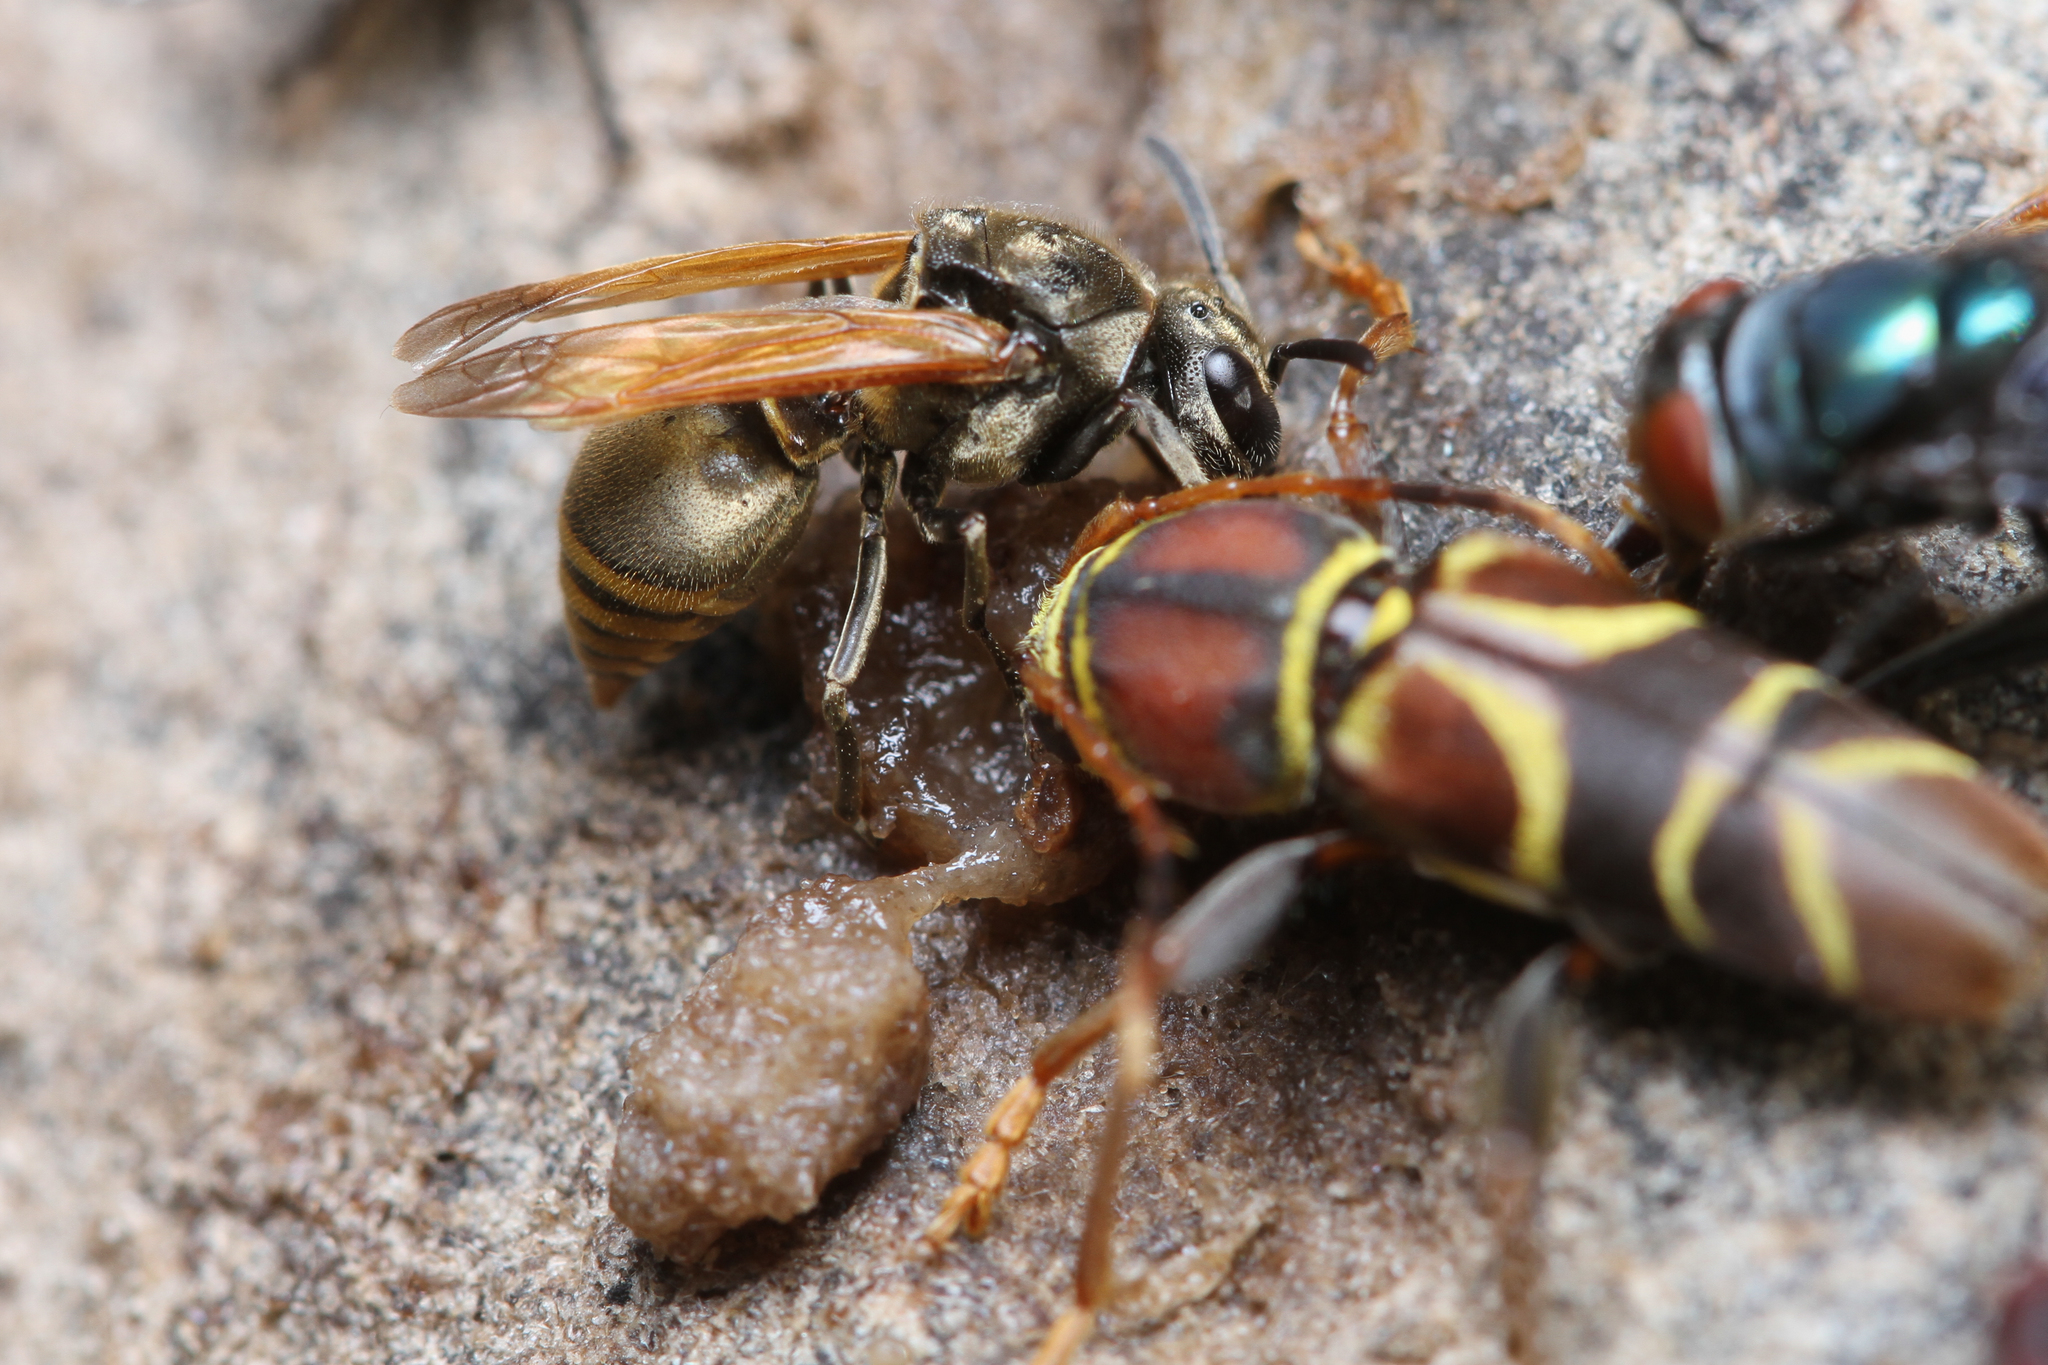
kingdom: Animalia
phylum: Arthropoda
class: Insecta
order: Hymenoptera
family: Vespidae
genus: Brachygastra
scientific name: Brachygastra mellifica
